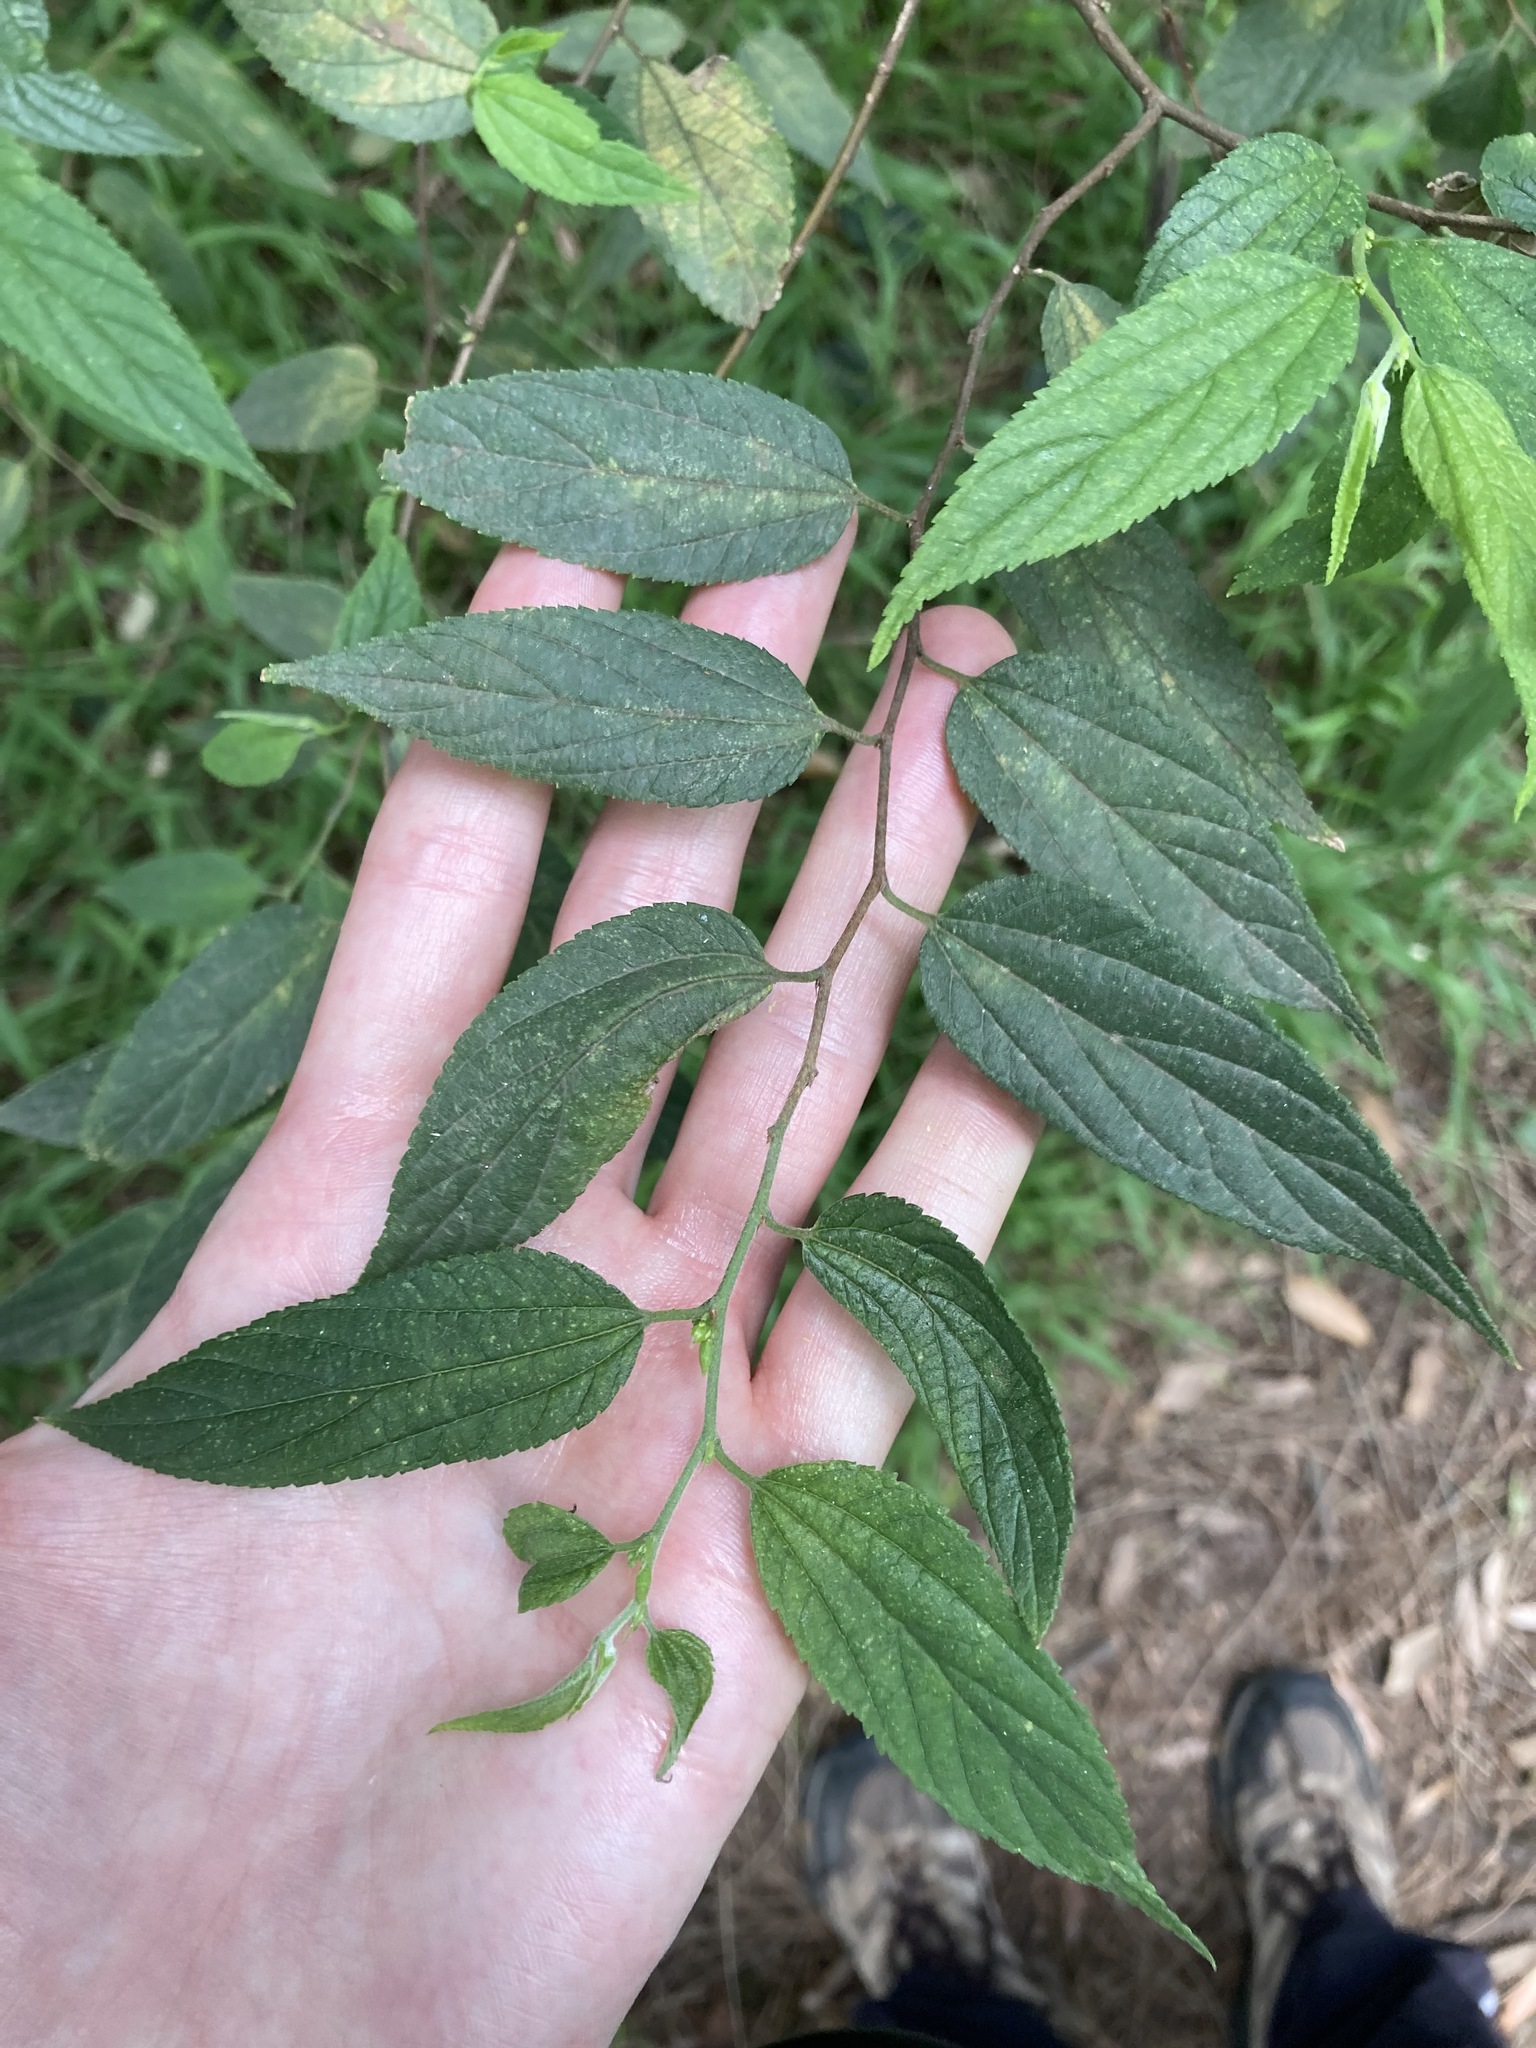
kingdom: Plantae
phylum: Tracheophyta
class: Magnoliopsida
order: Rosales
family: Cannabaceae
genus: Trema
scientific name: Trema tomentosum
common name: Peach-leaf-poisonbush
